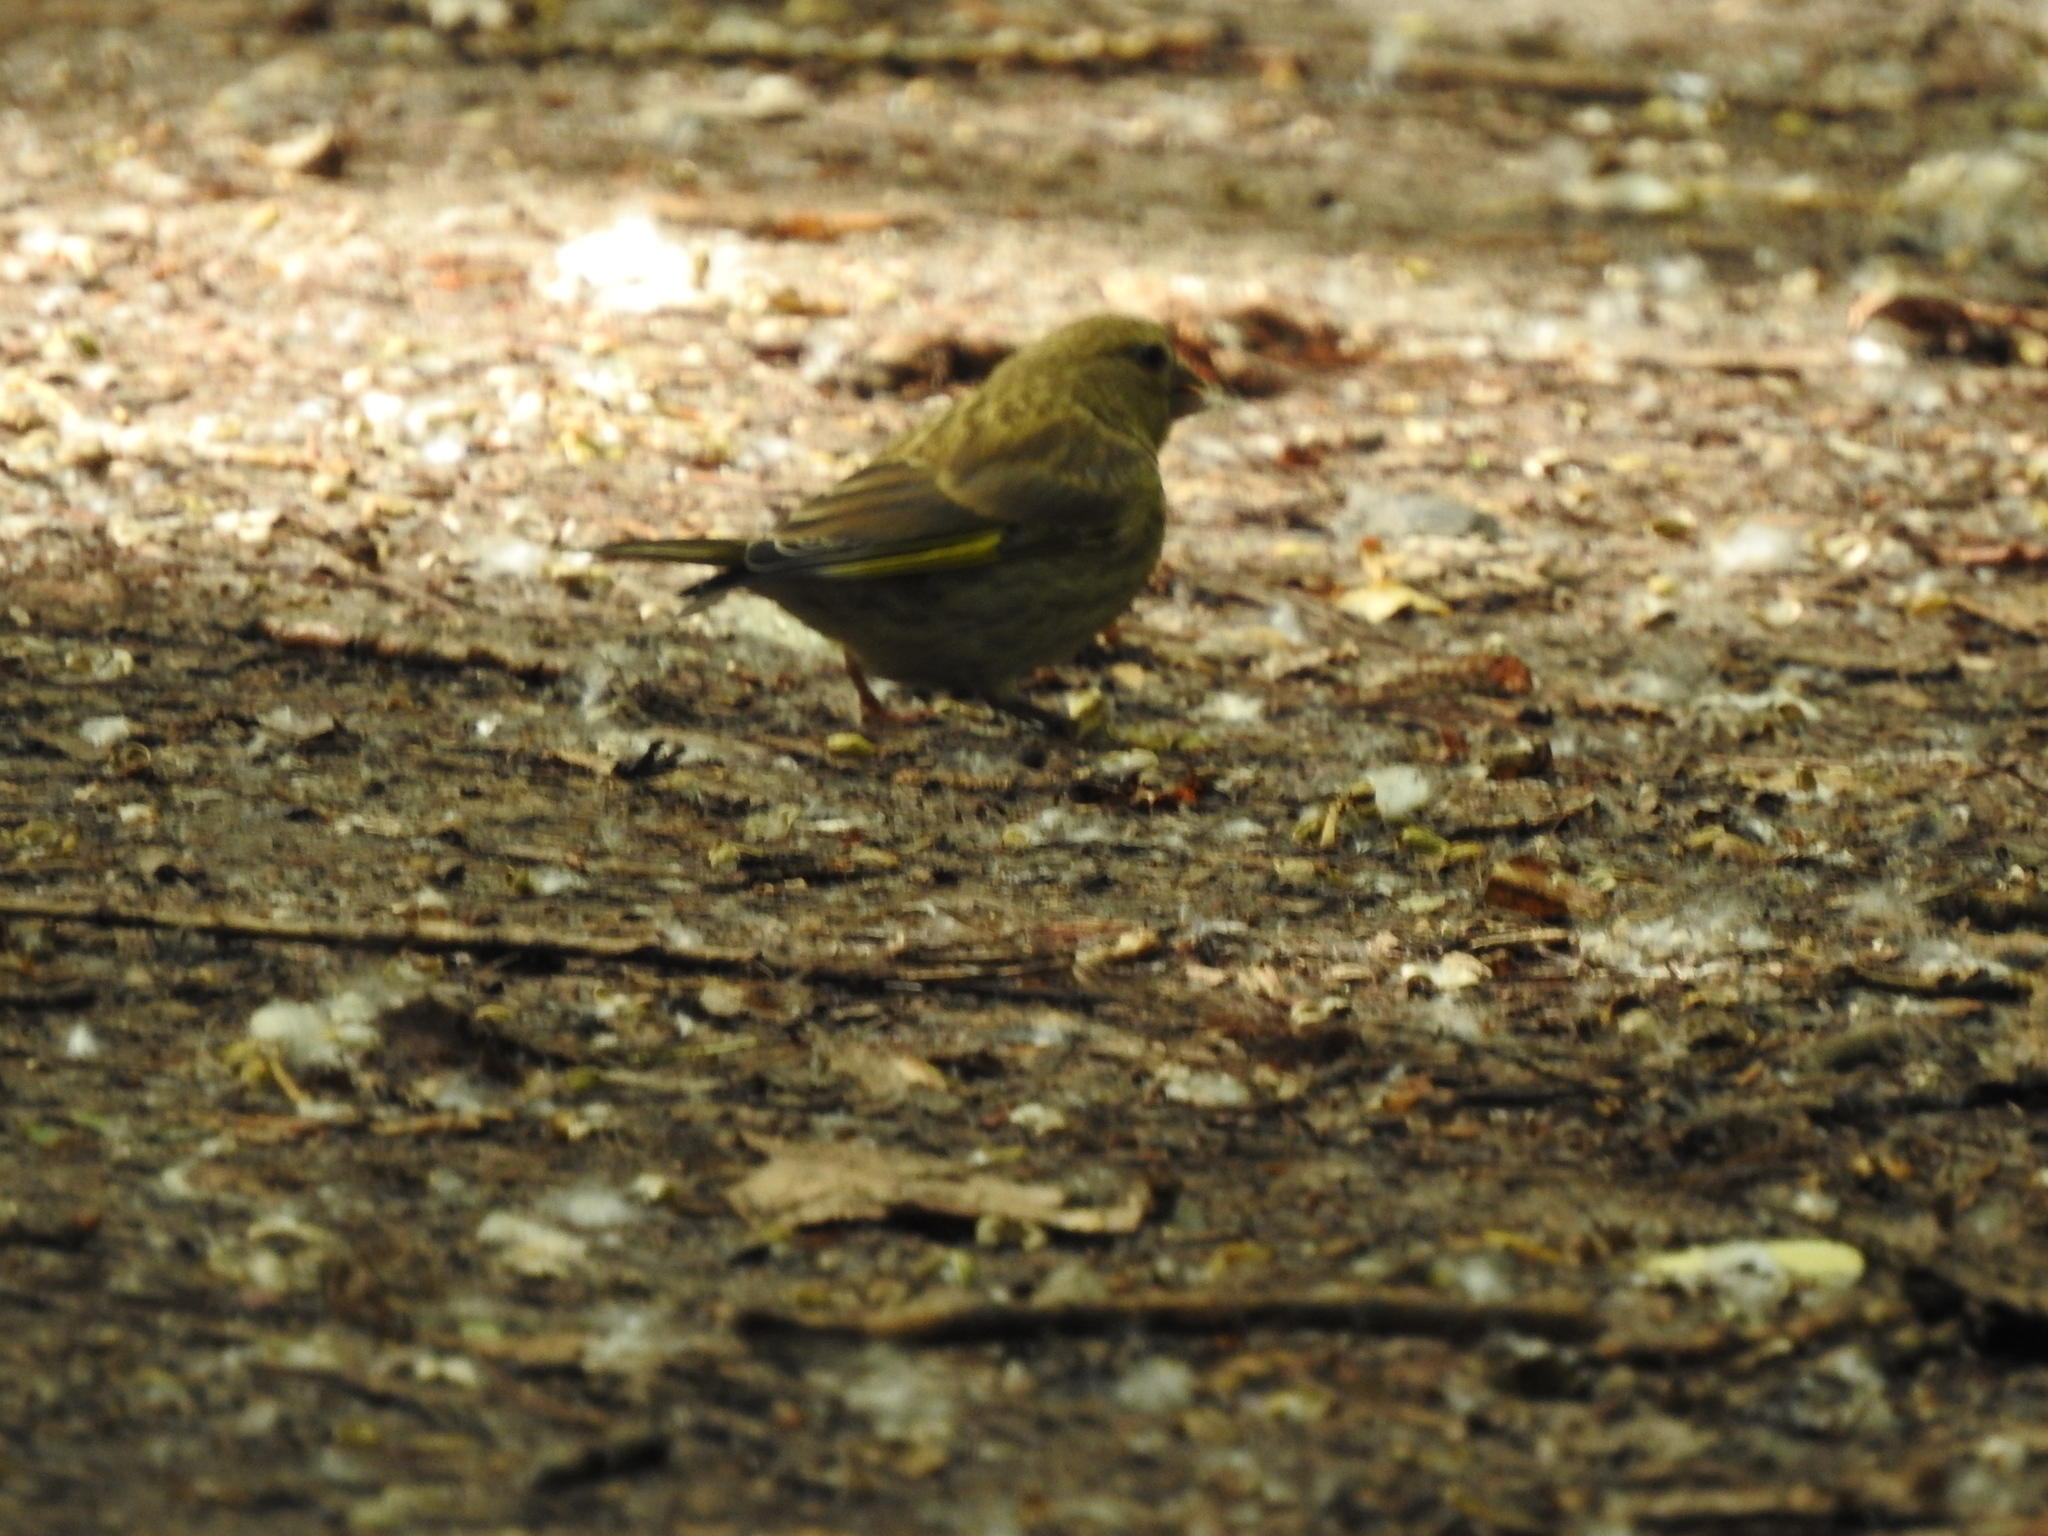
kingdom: Plantae
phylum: Tracheophyta
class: Liliopsida
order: Poales
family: Poaceae
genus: Chloris
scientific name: Chloris chloris
